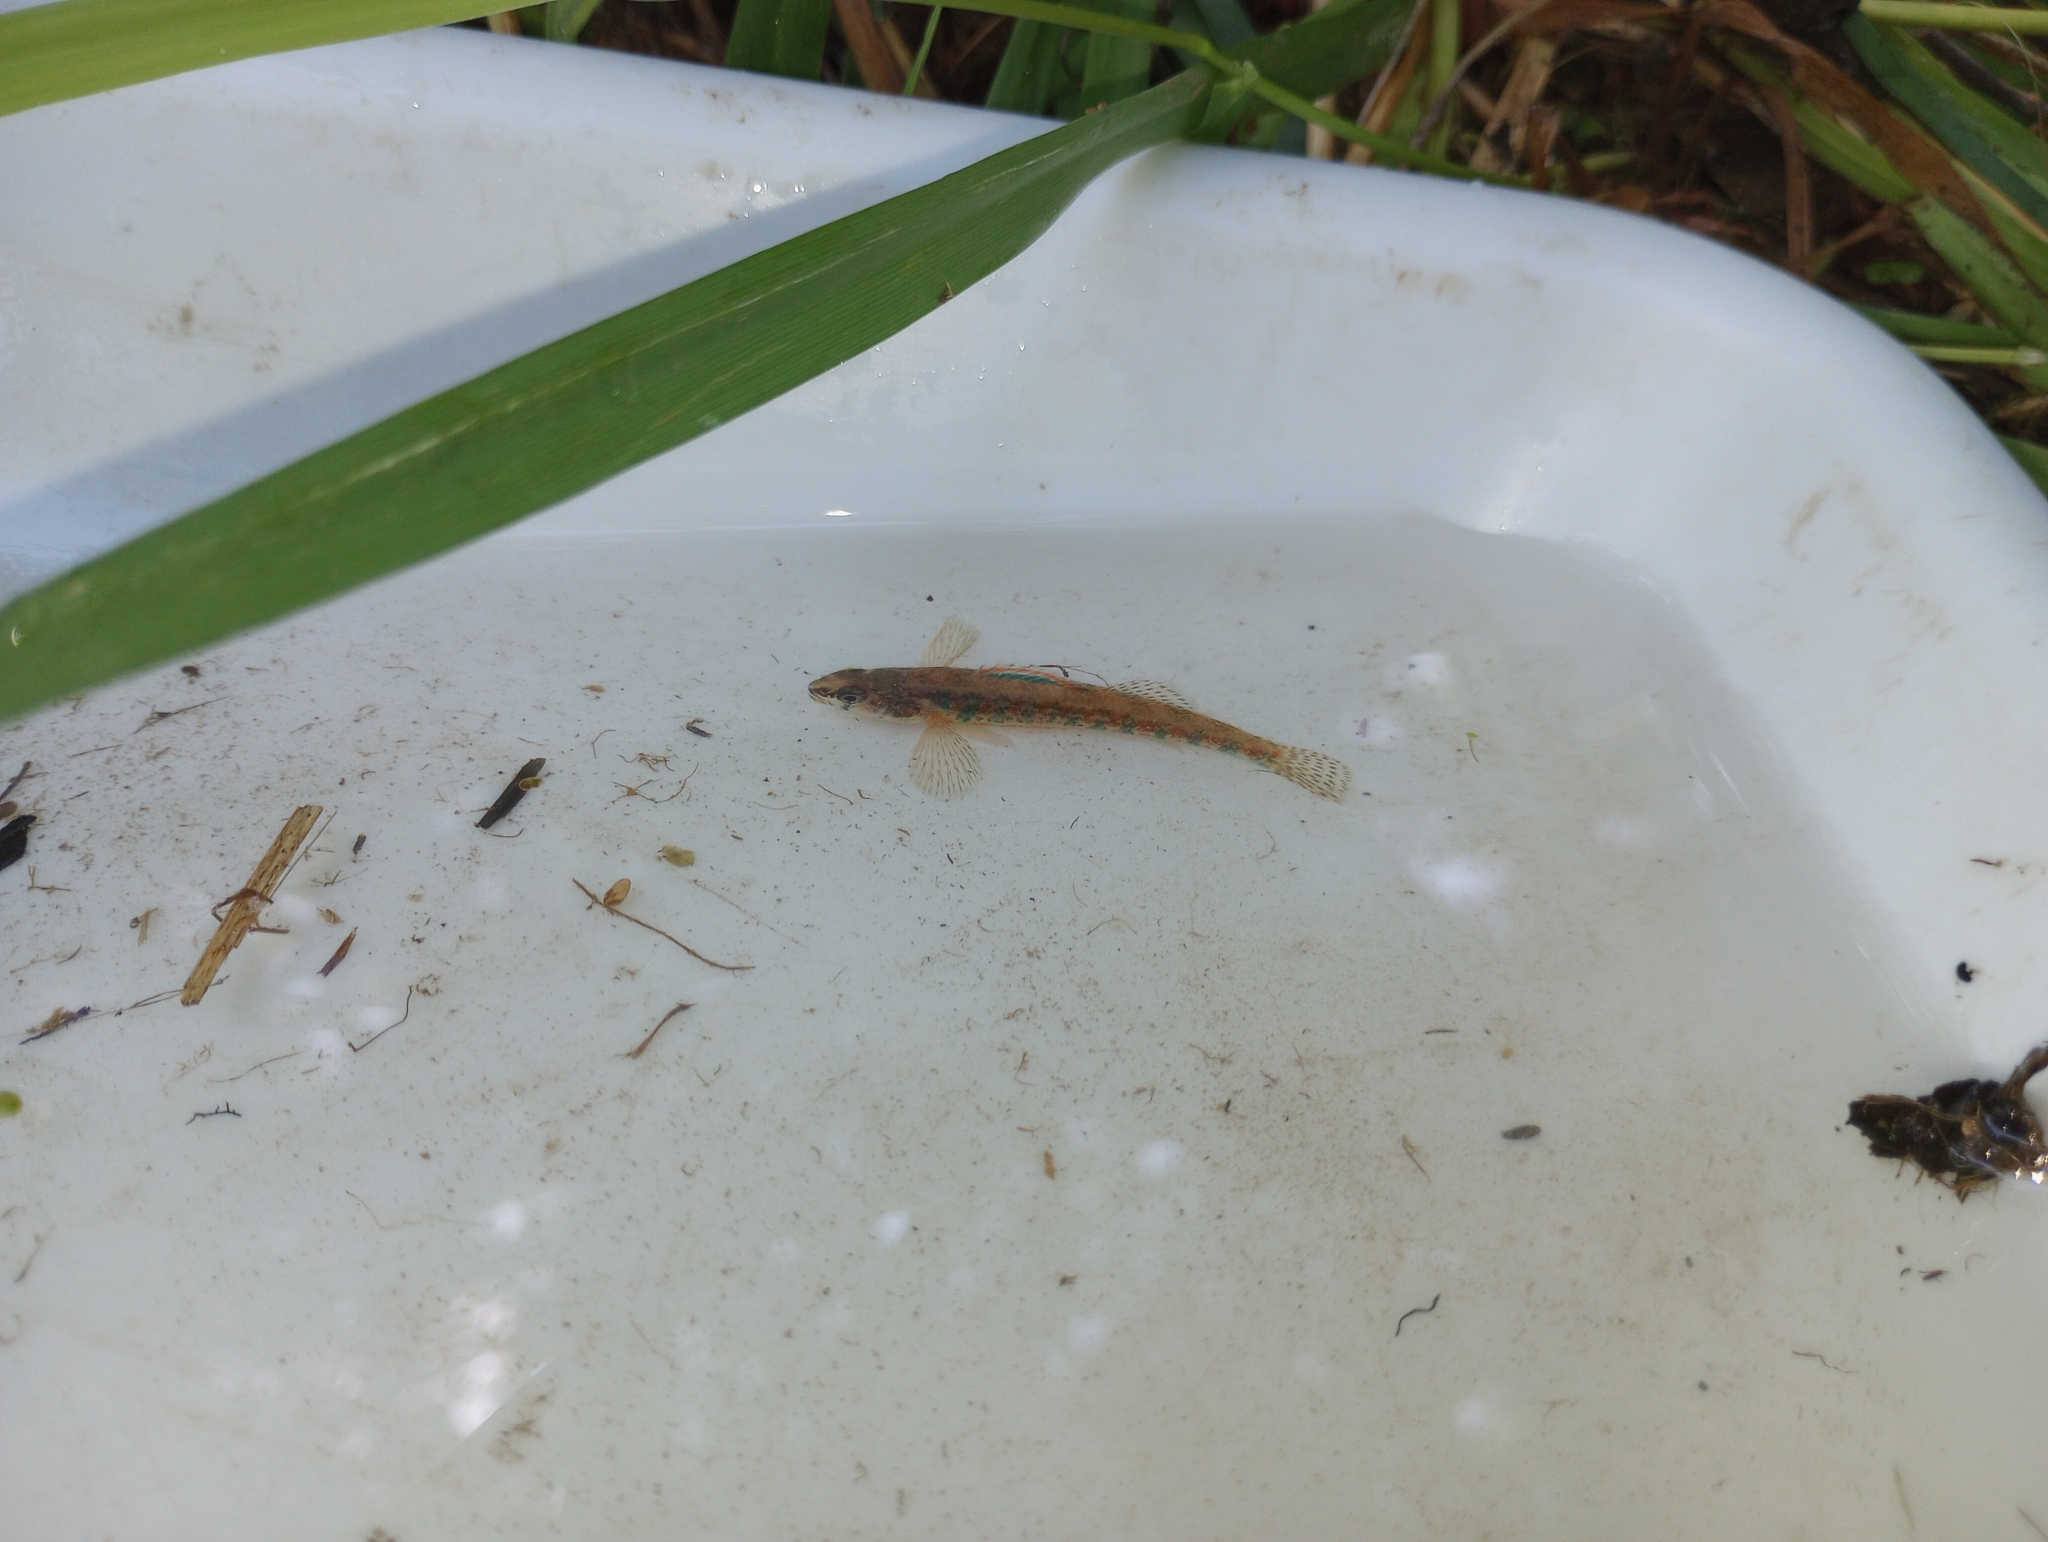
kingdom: Animalia
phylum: Chordata
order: Perciformes
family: Percidae
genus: Etheostoma
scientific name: Etheostoma exile
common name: Iowa darter
